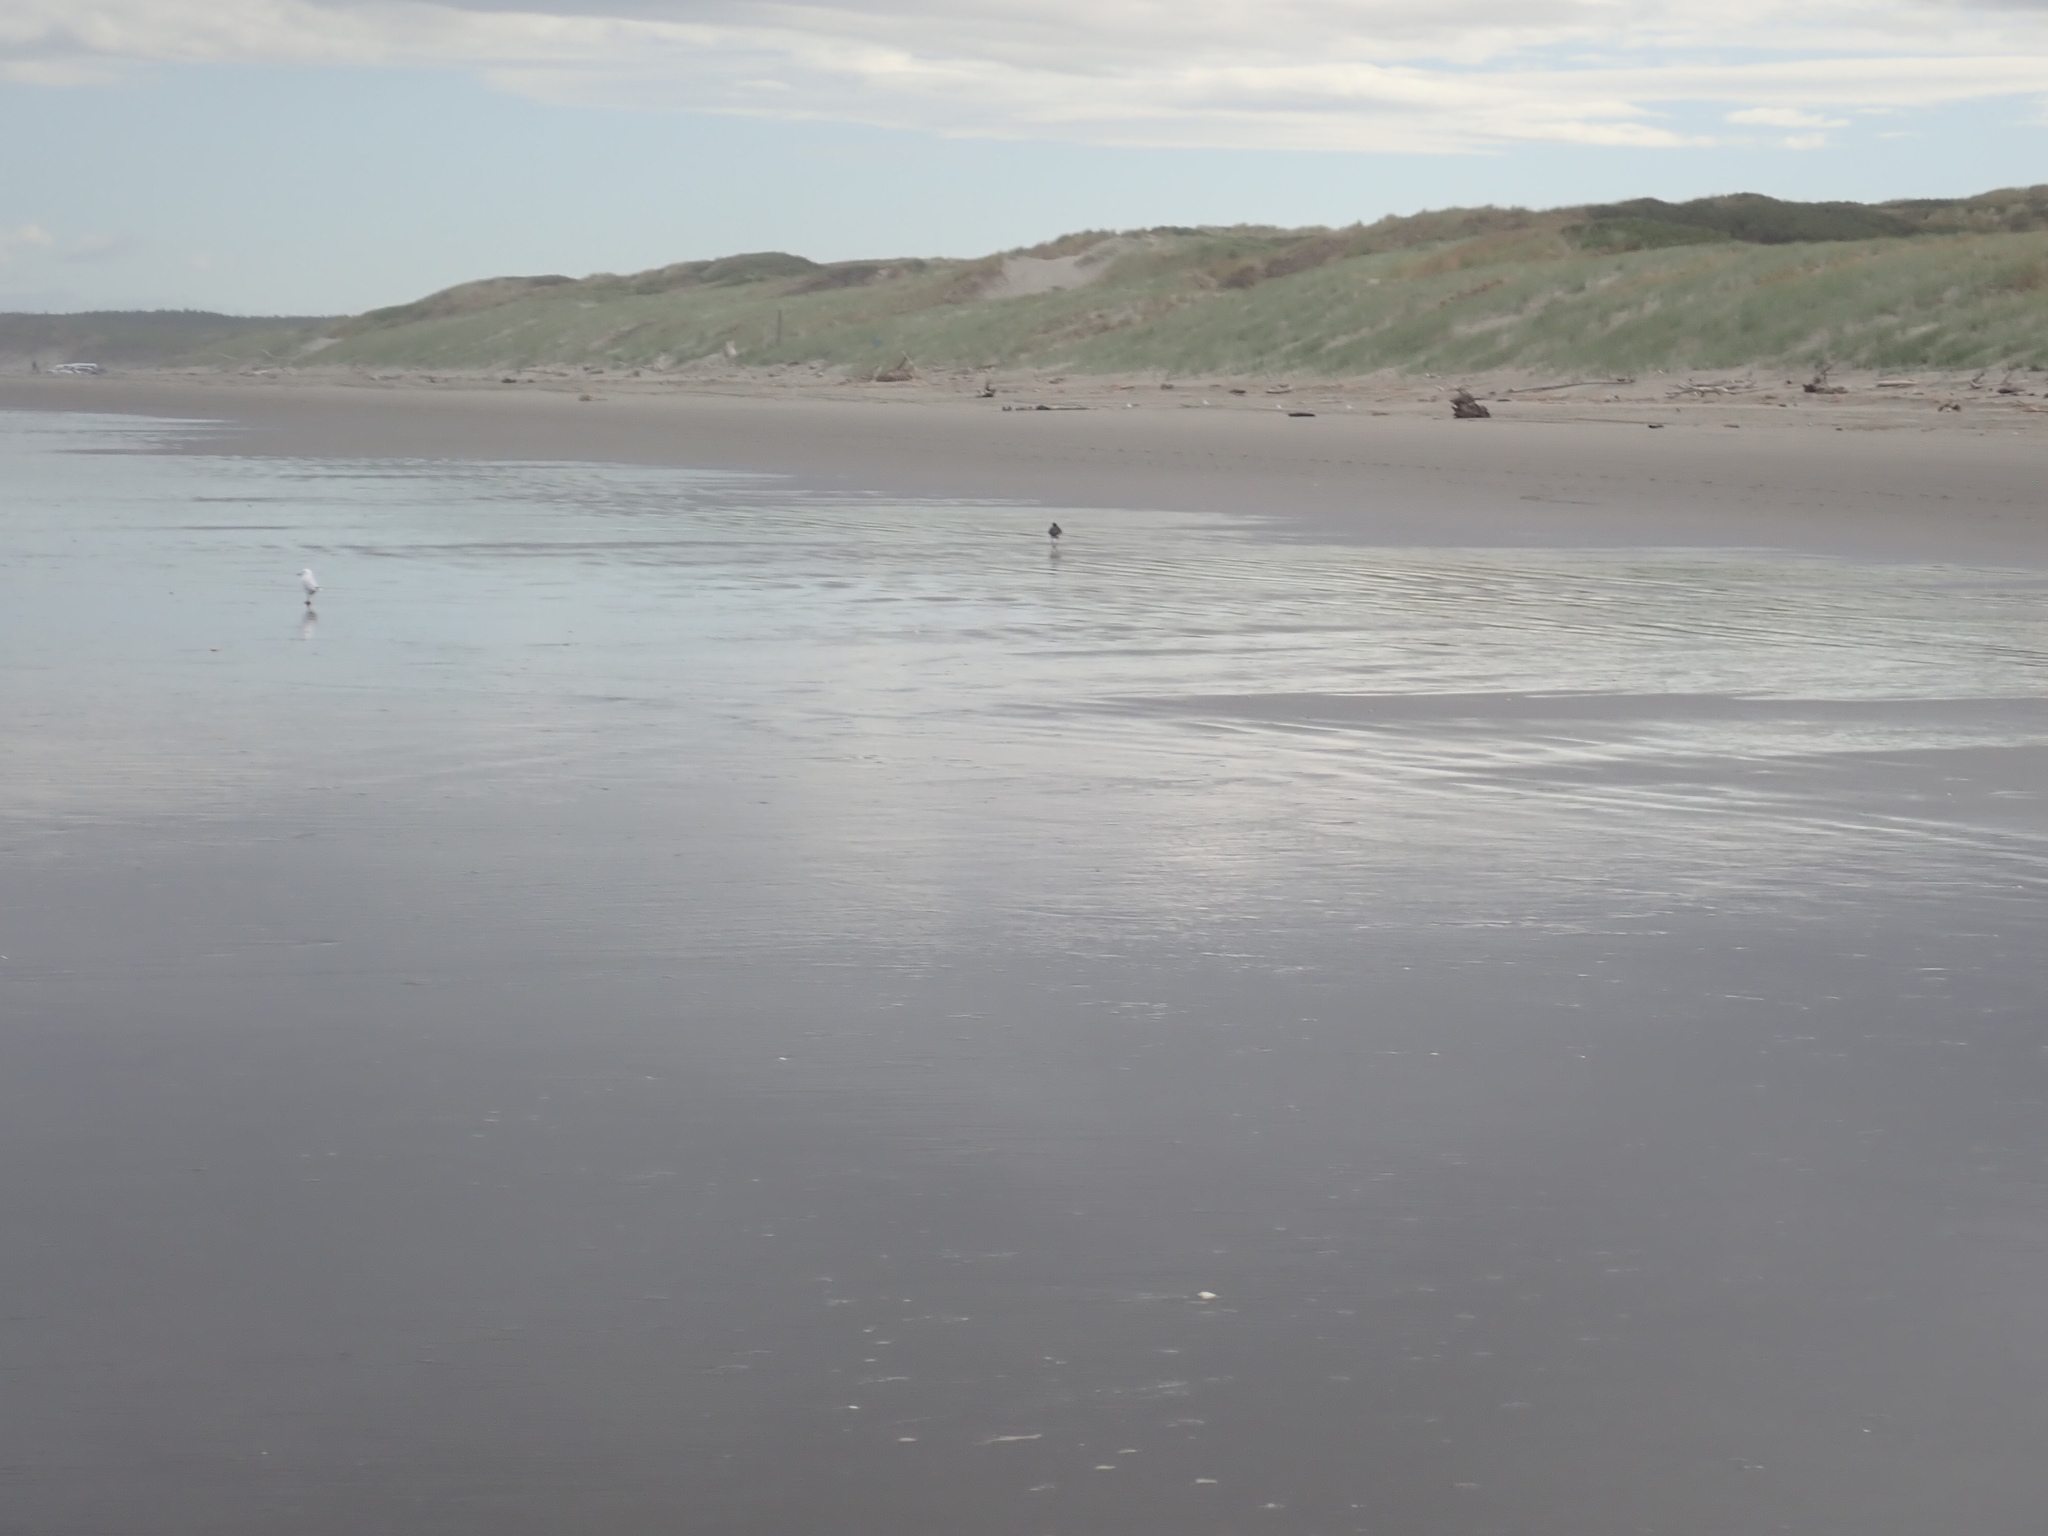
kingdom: Animalia
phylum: Chordata
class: Aves
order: Charadriiformes
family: Haematopodidae
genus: Haematopus
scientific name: Haematopus finschi
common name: South island oystercatcher
